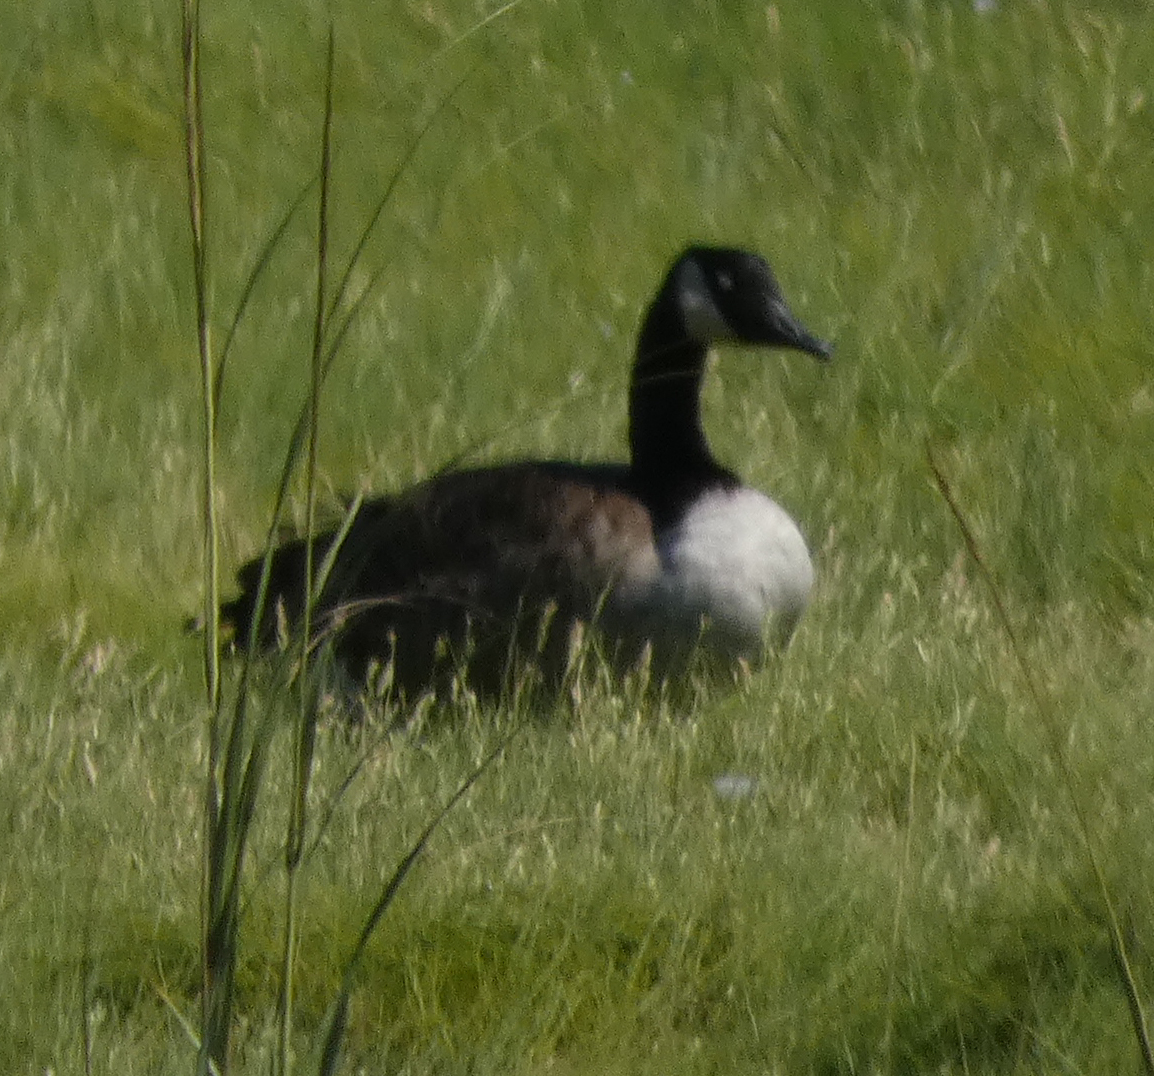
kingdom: Animalia
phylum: Chordata
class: Aves
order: Anseriformes
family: Anatidae
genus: Branta
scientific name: Branta canadensis
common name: Canada goose
